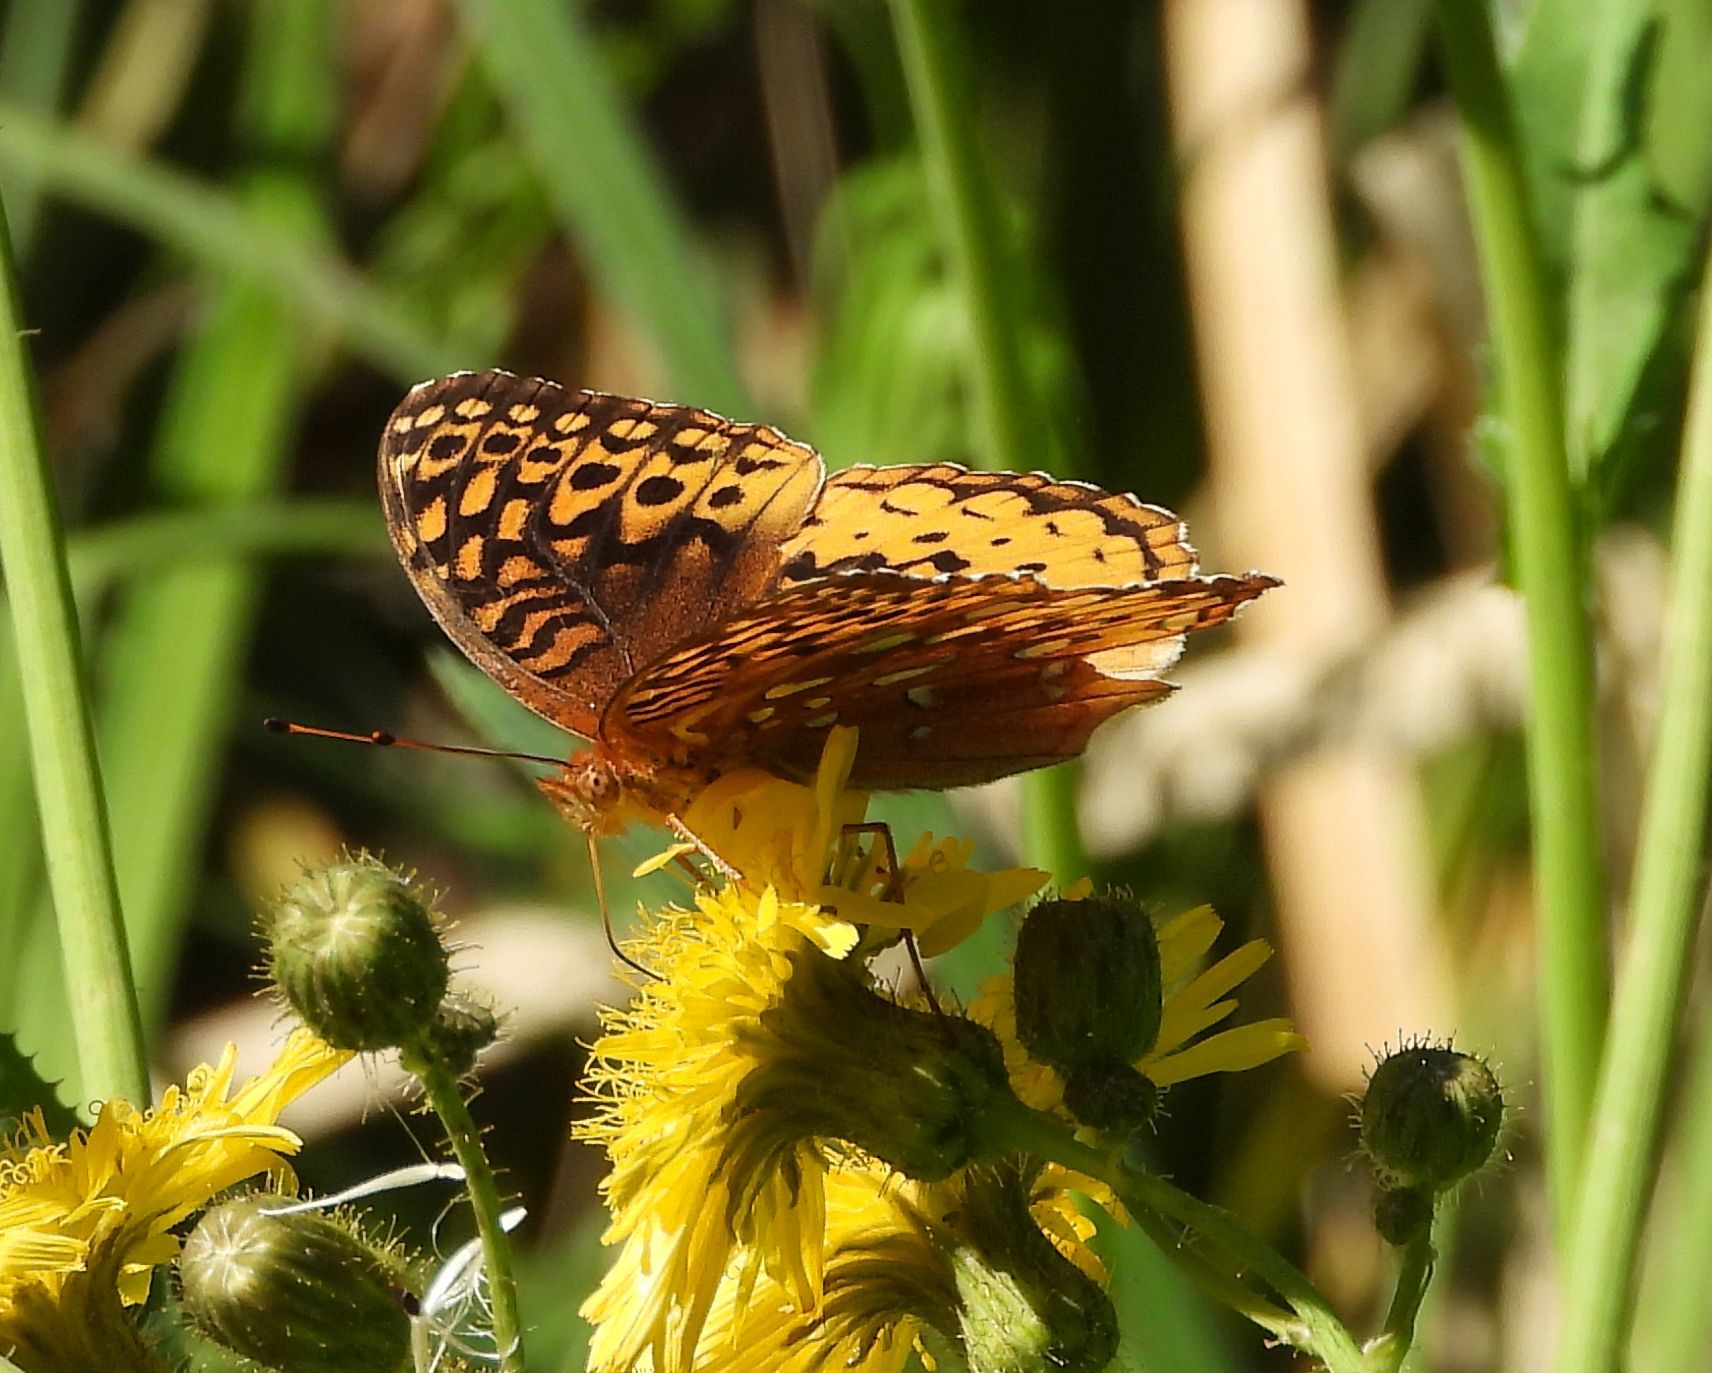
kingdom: Animalia
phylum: Arthropoda
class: Insecta
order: Lepidoptera
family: Nymphalidae
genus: Speyeria
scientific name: Speyeria cybele
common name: Great spangled fritillary
